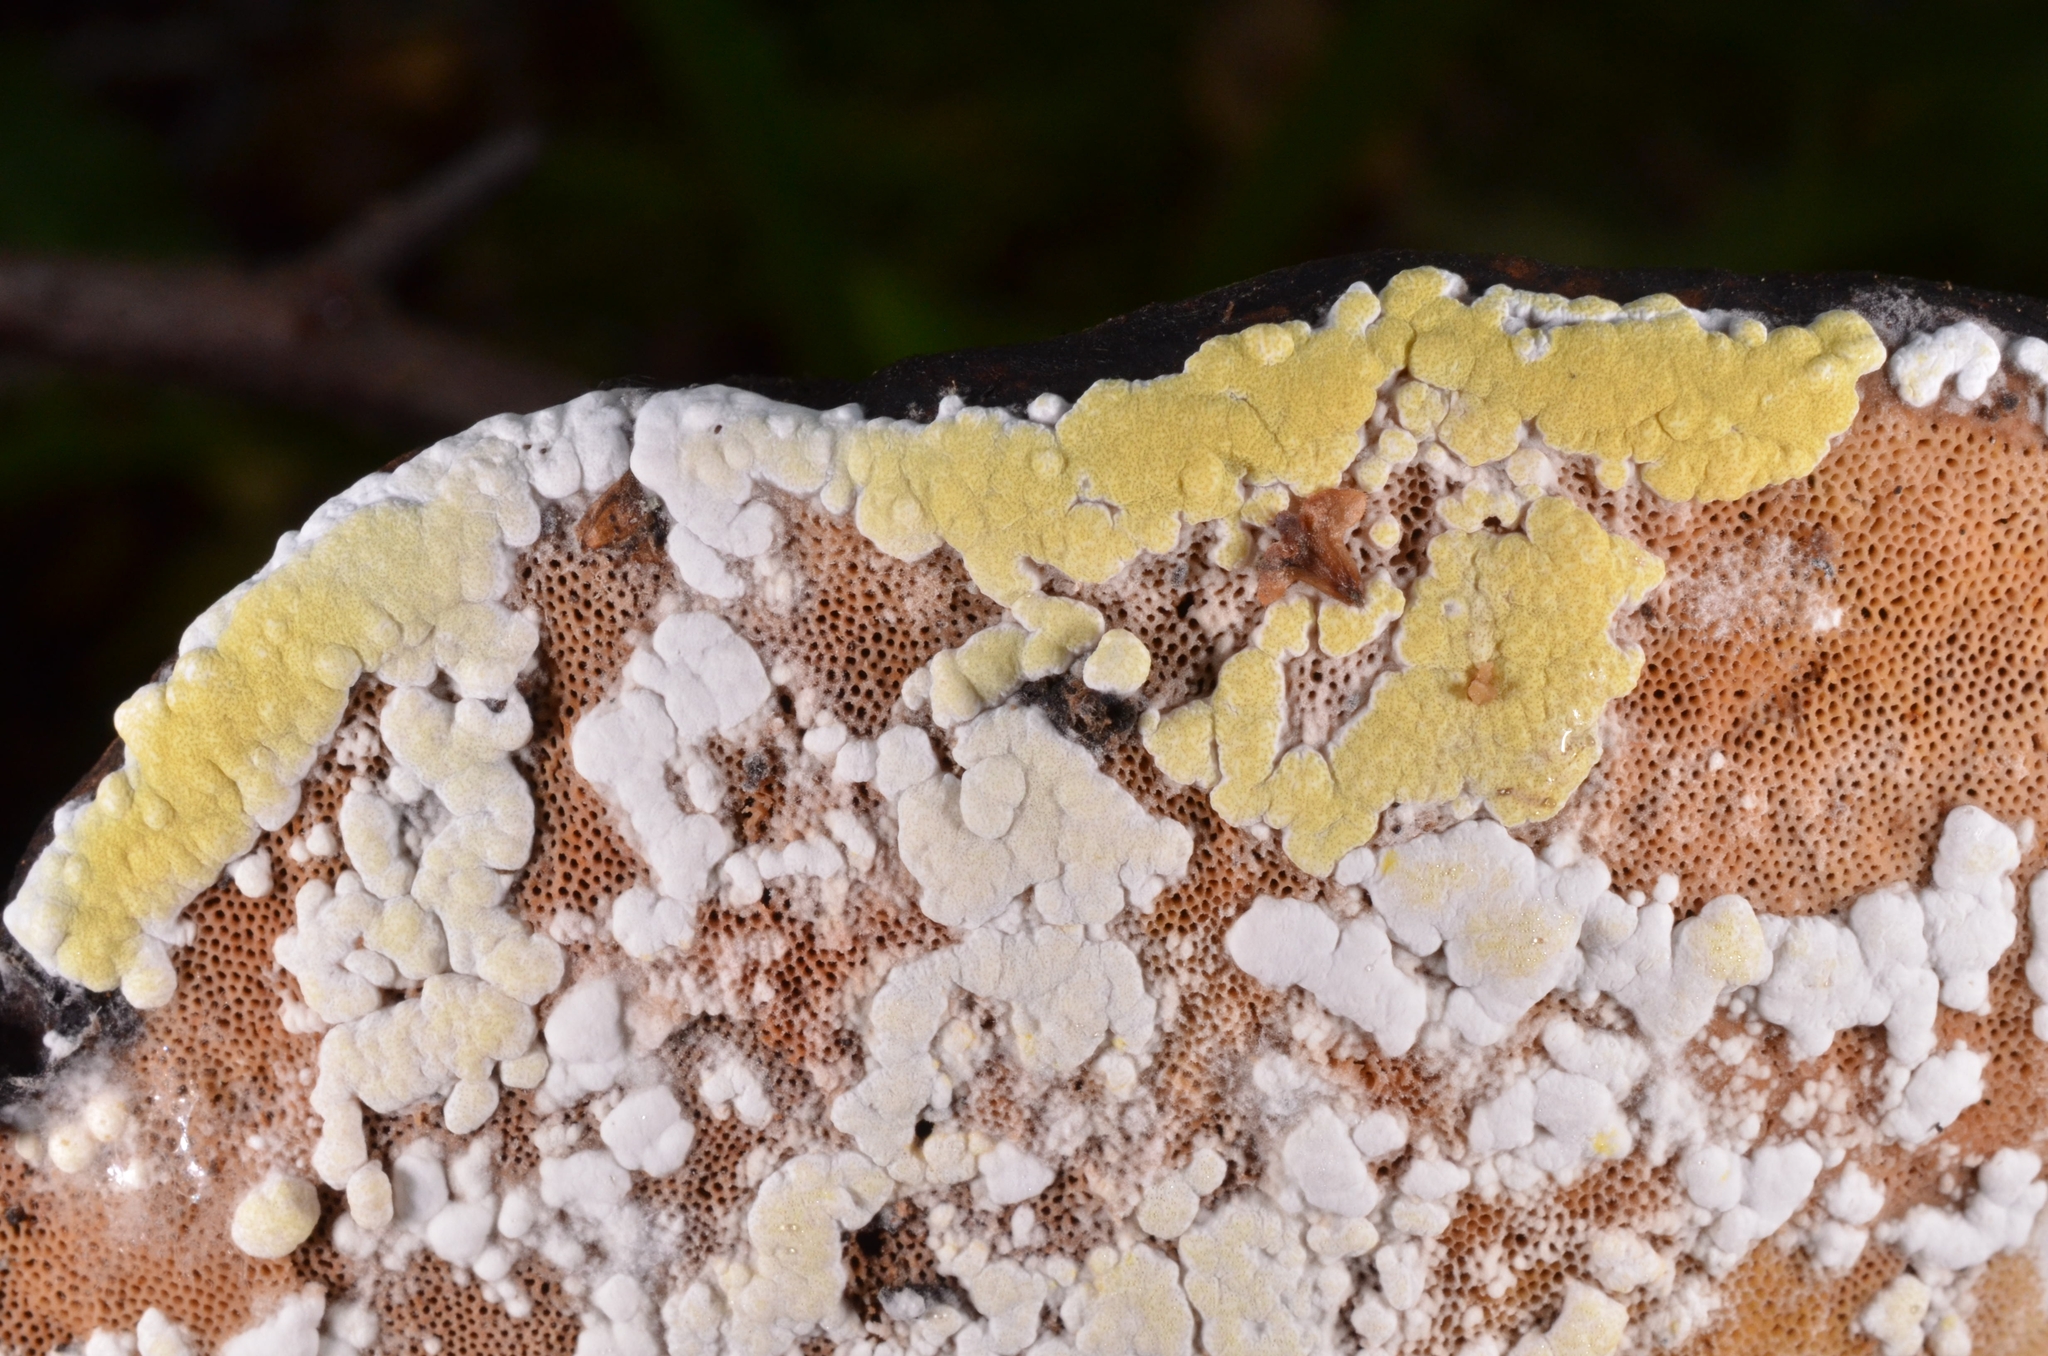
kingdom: Fungi
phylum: Ascomycota
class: Sordariomycetes
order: Hypocreales
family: Hypocreaceae
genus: Trichoderma
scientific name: Trichoderma pulvinatum
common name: Ochre cushion
